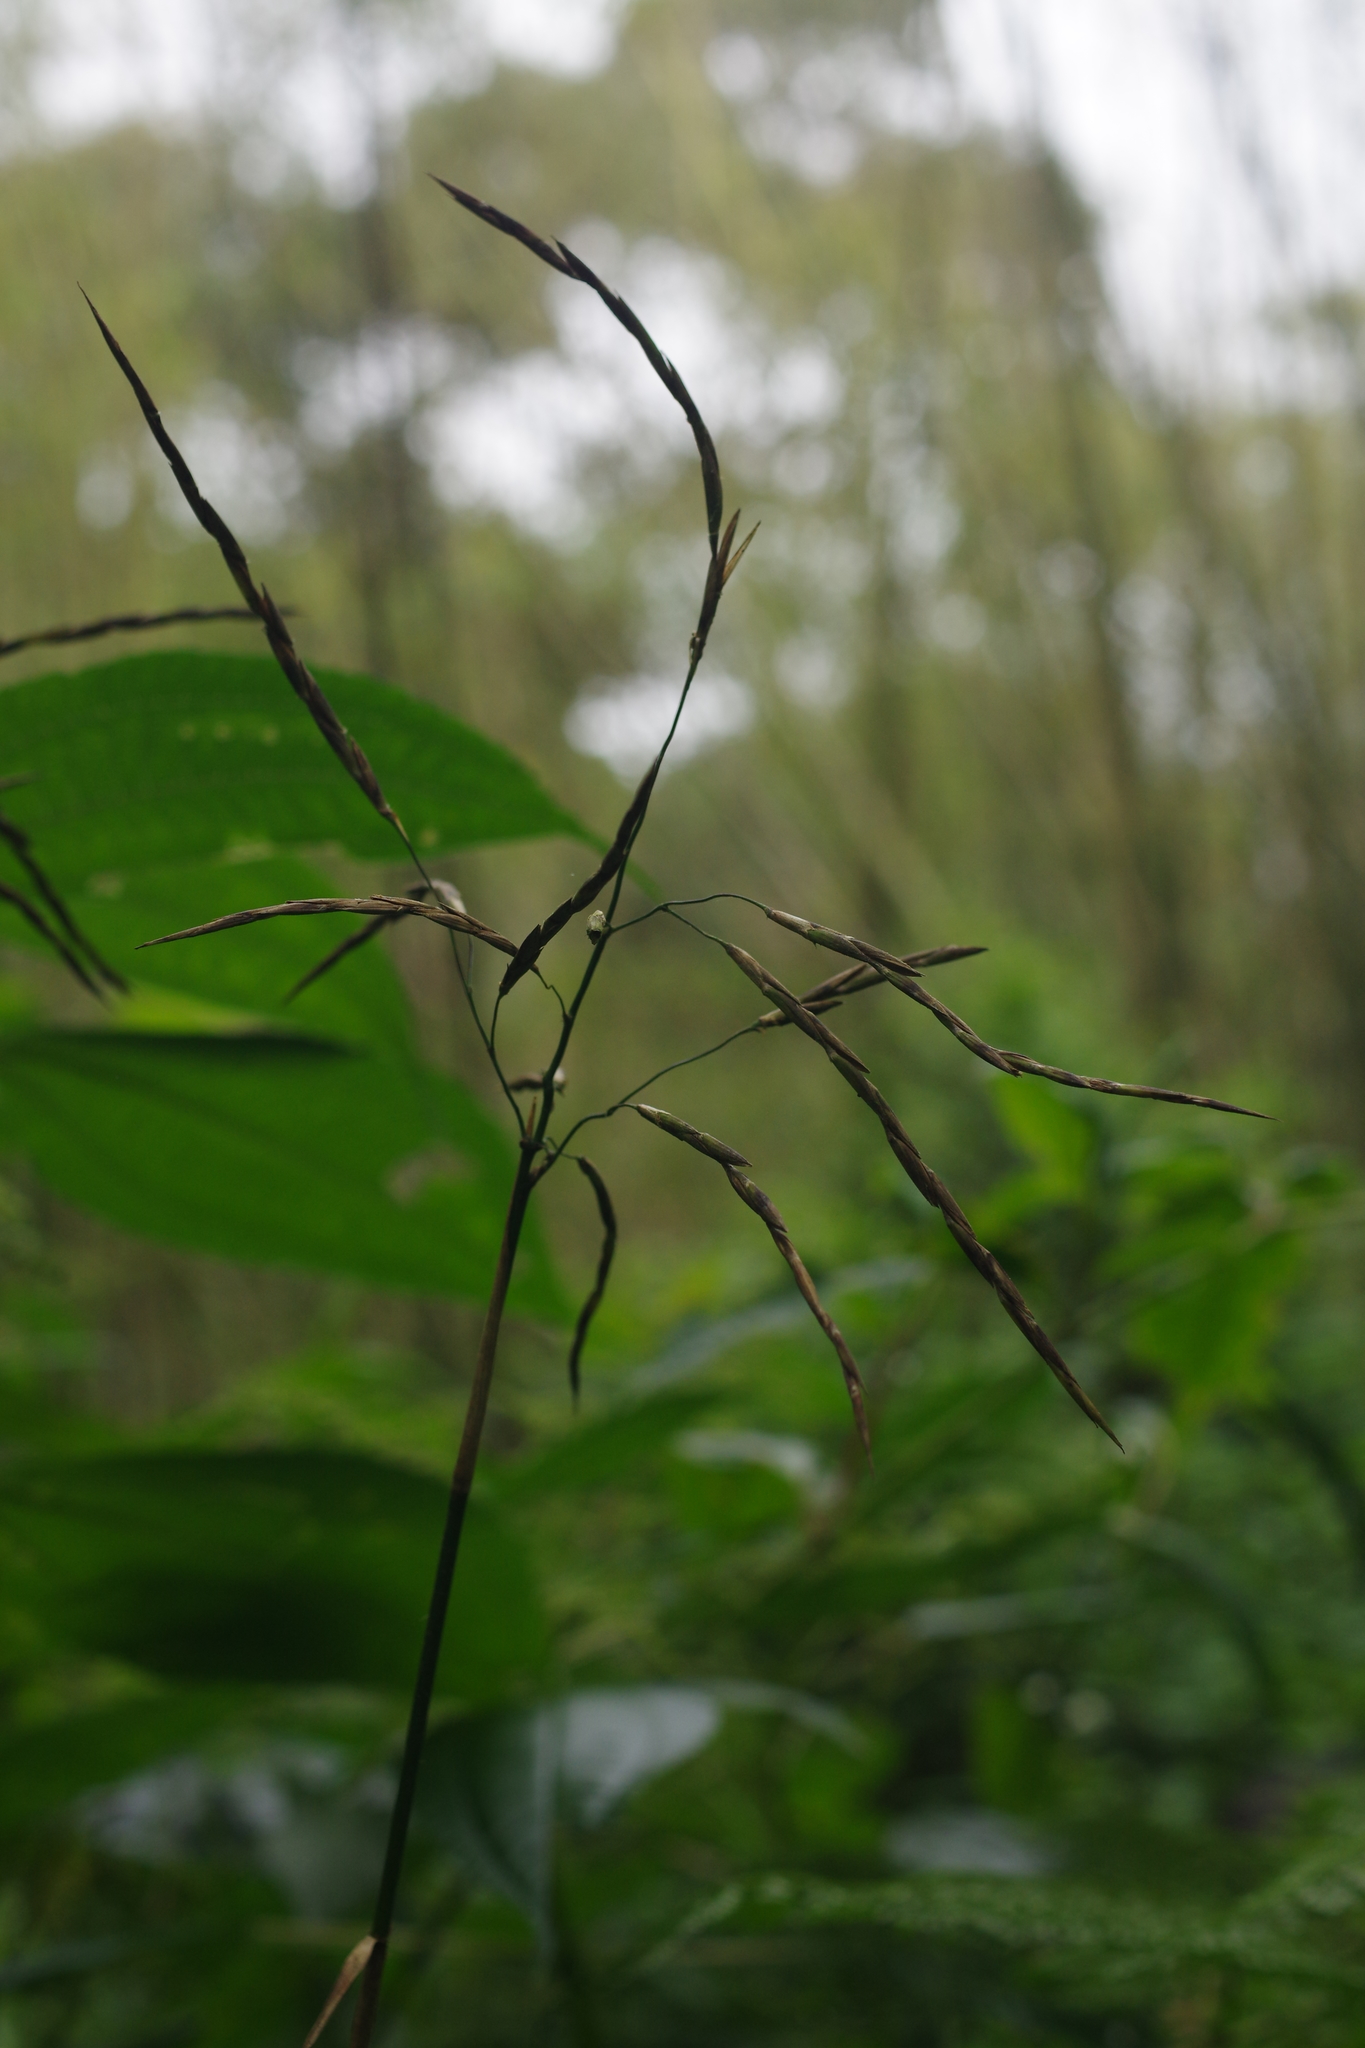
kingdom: Plantae
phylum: Tracheophyta
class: Liliopsida
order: Poales
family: Poaceae
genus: Yushania
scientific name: Yushania niitakayamensis
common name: Yushan cane
